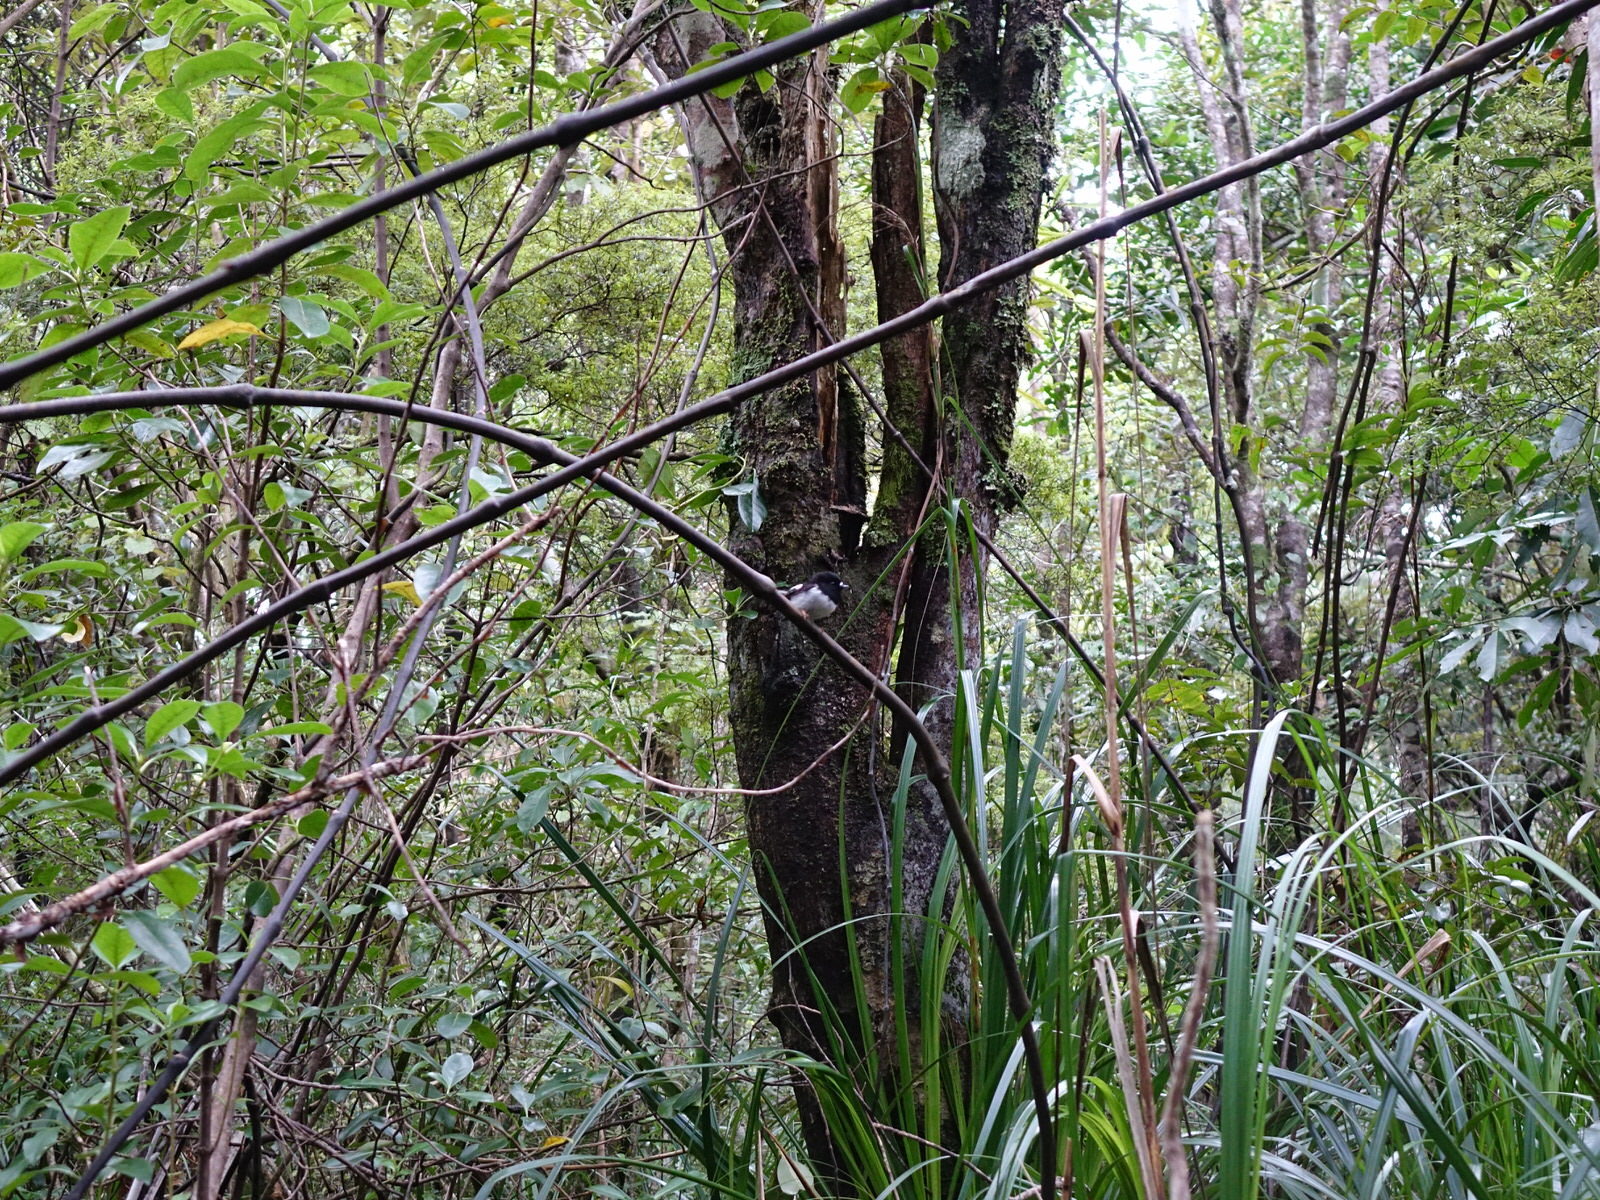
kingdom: Animalia
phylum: Chordata
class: Aves
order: Passeriformes
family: Petroicidae
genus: Petroica
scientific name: Petroica macrocephala
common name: Tomtit
